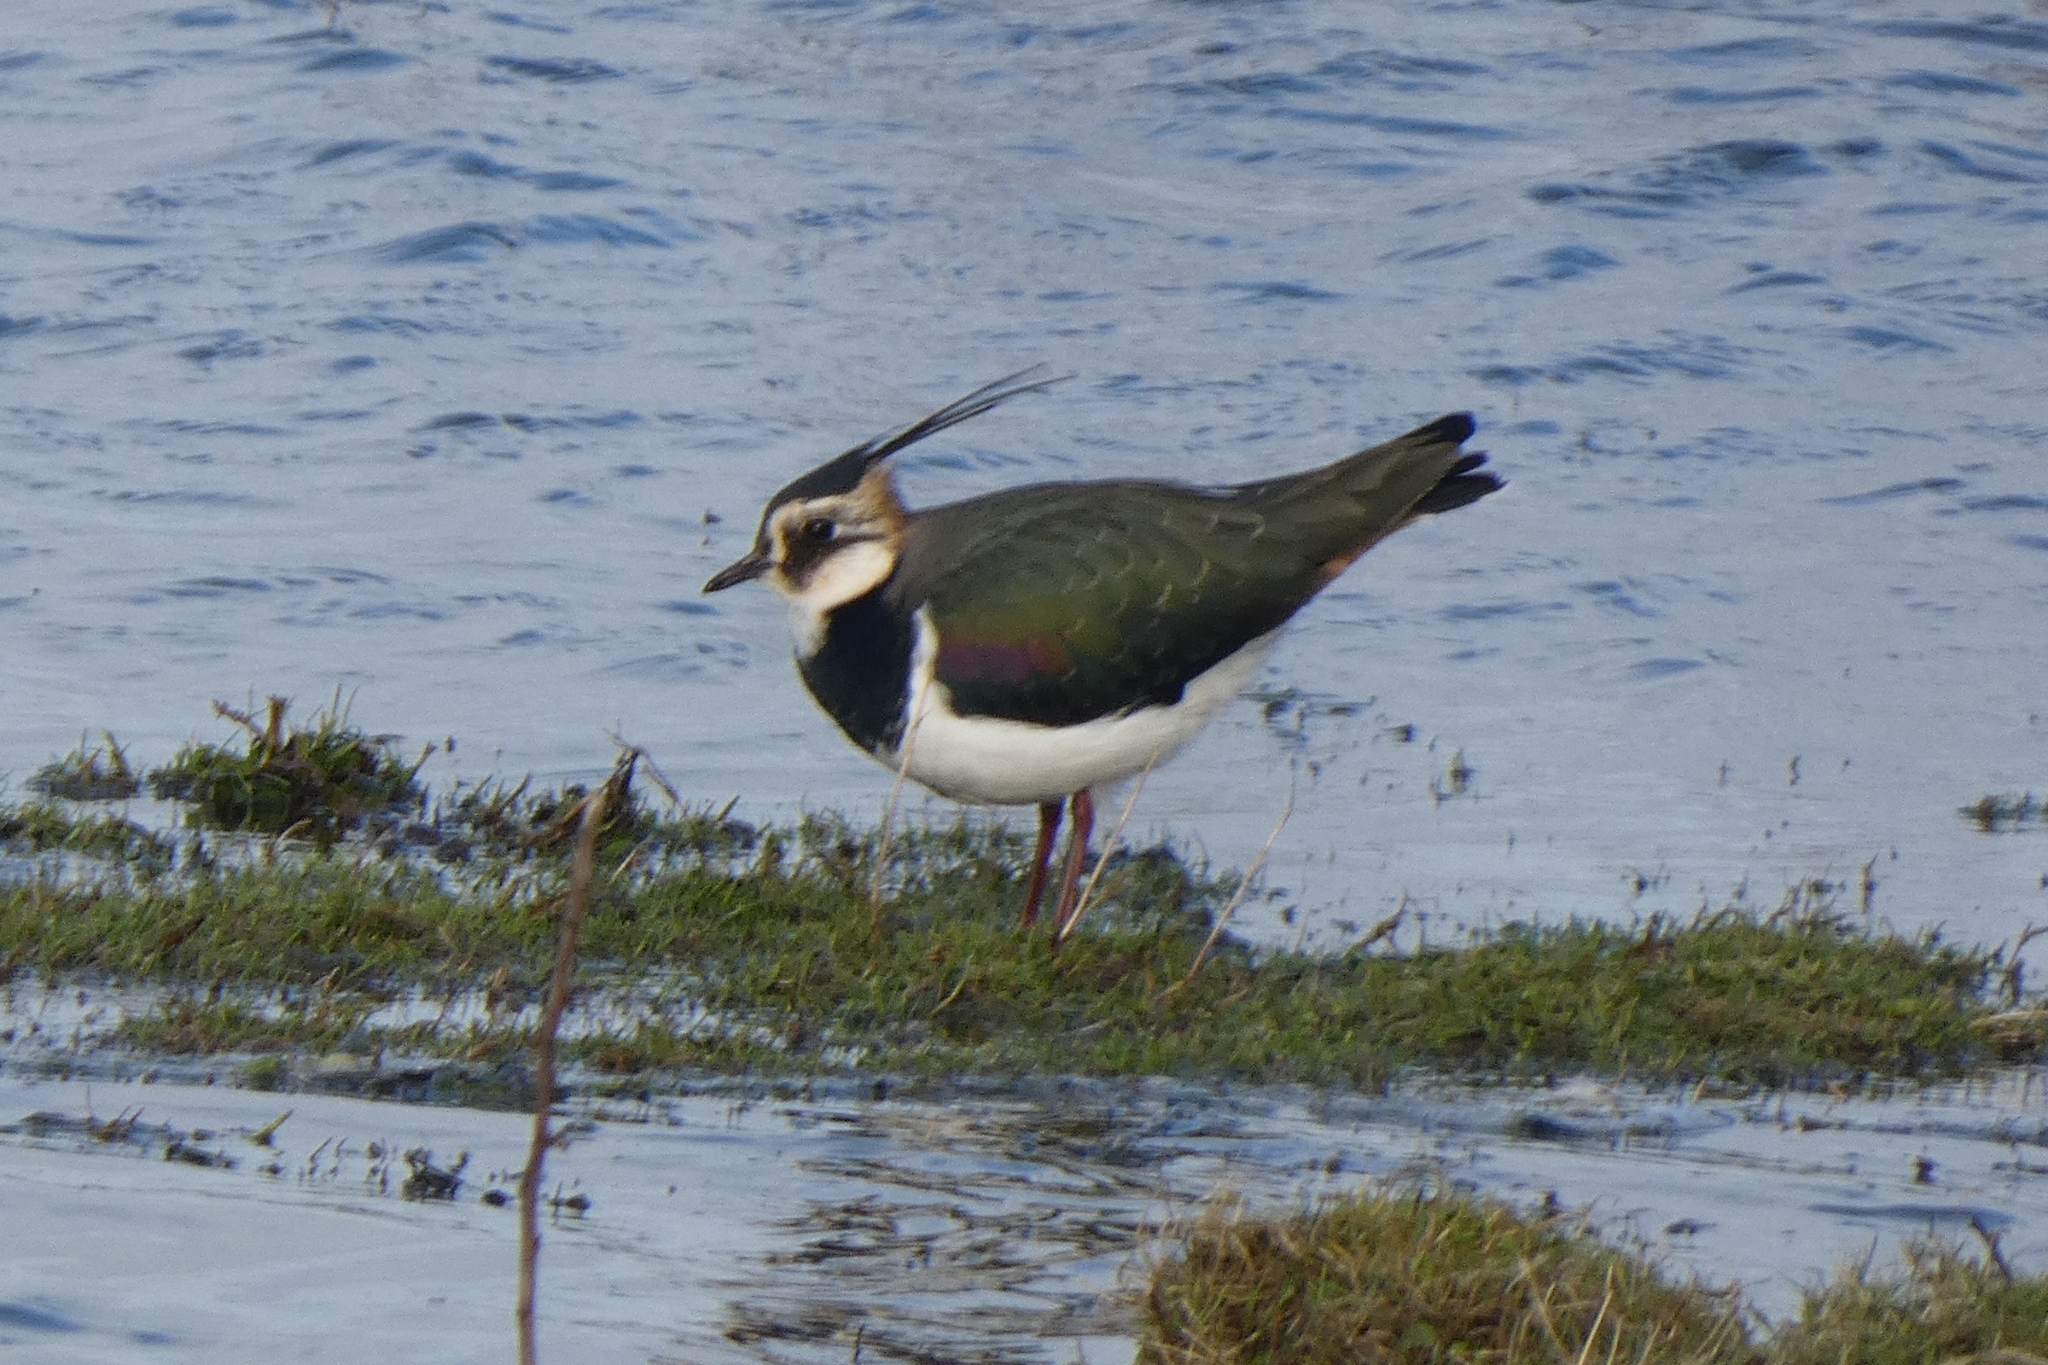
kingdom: Animalia
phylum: Chordata
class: Aves
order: Charadriiformes
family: Charadriidae
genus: Vanellus
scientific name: Vanellus vanellus
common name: Northern lapwing
